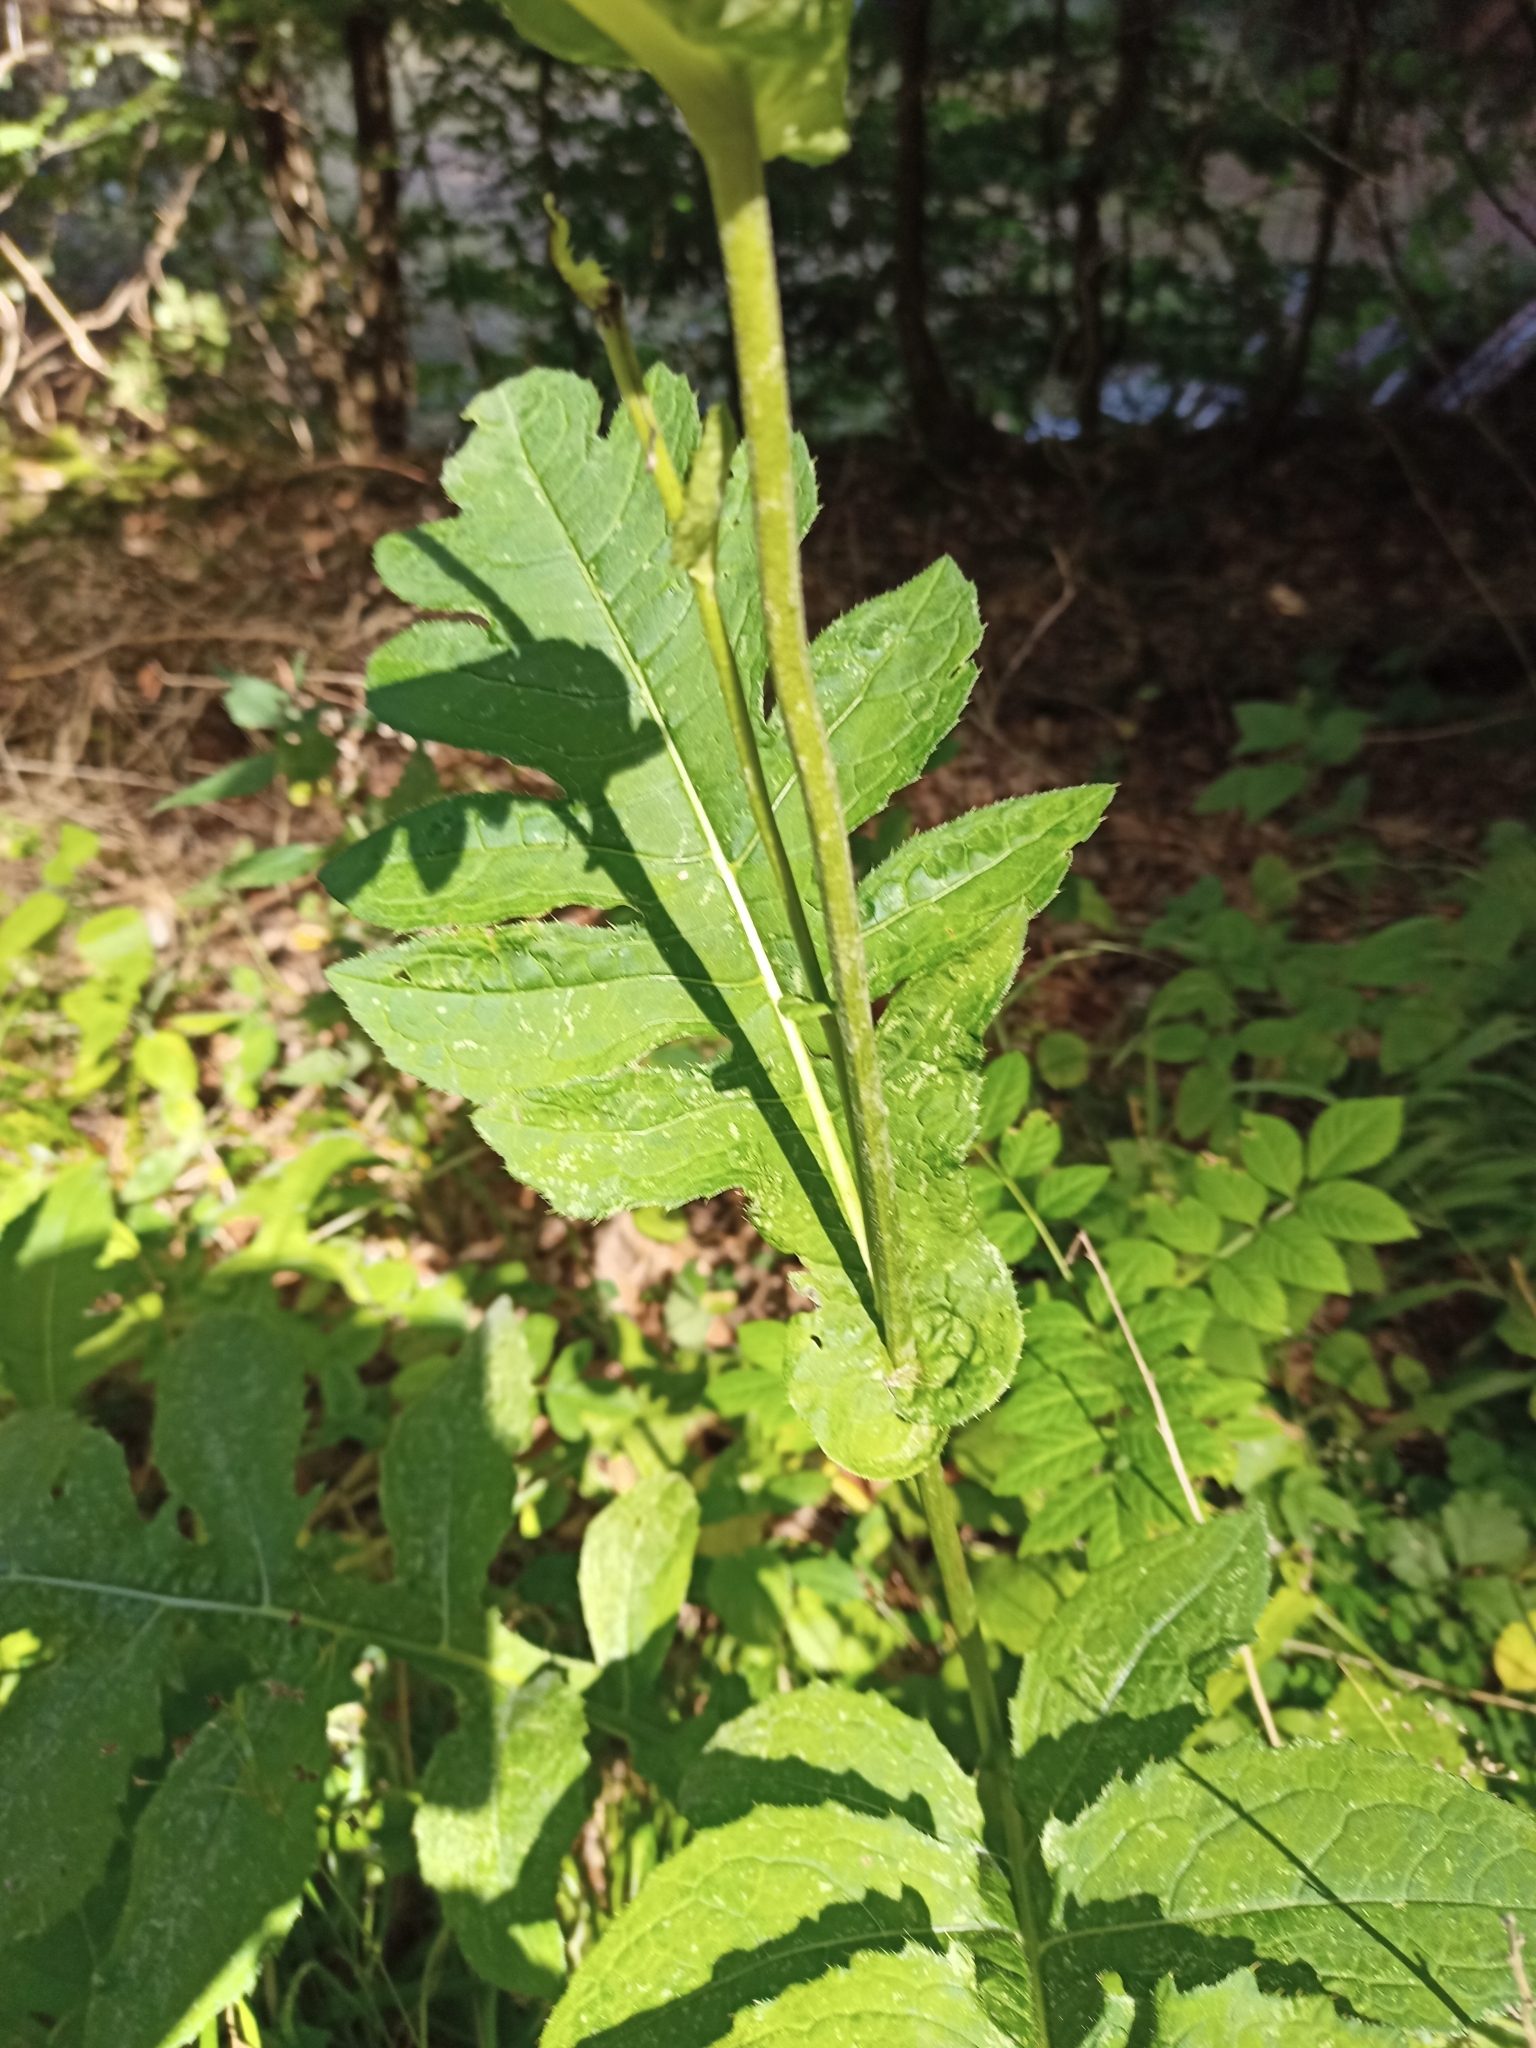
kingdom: Plantae
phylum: Tracheophyta
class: Magnoliopsida
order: Asterales
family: Asteraceae
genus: Cirsium
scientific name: Cirsium oleraceum
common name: Cabbage thistle
